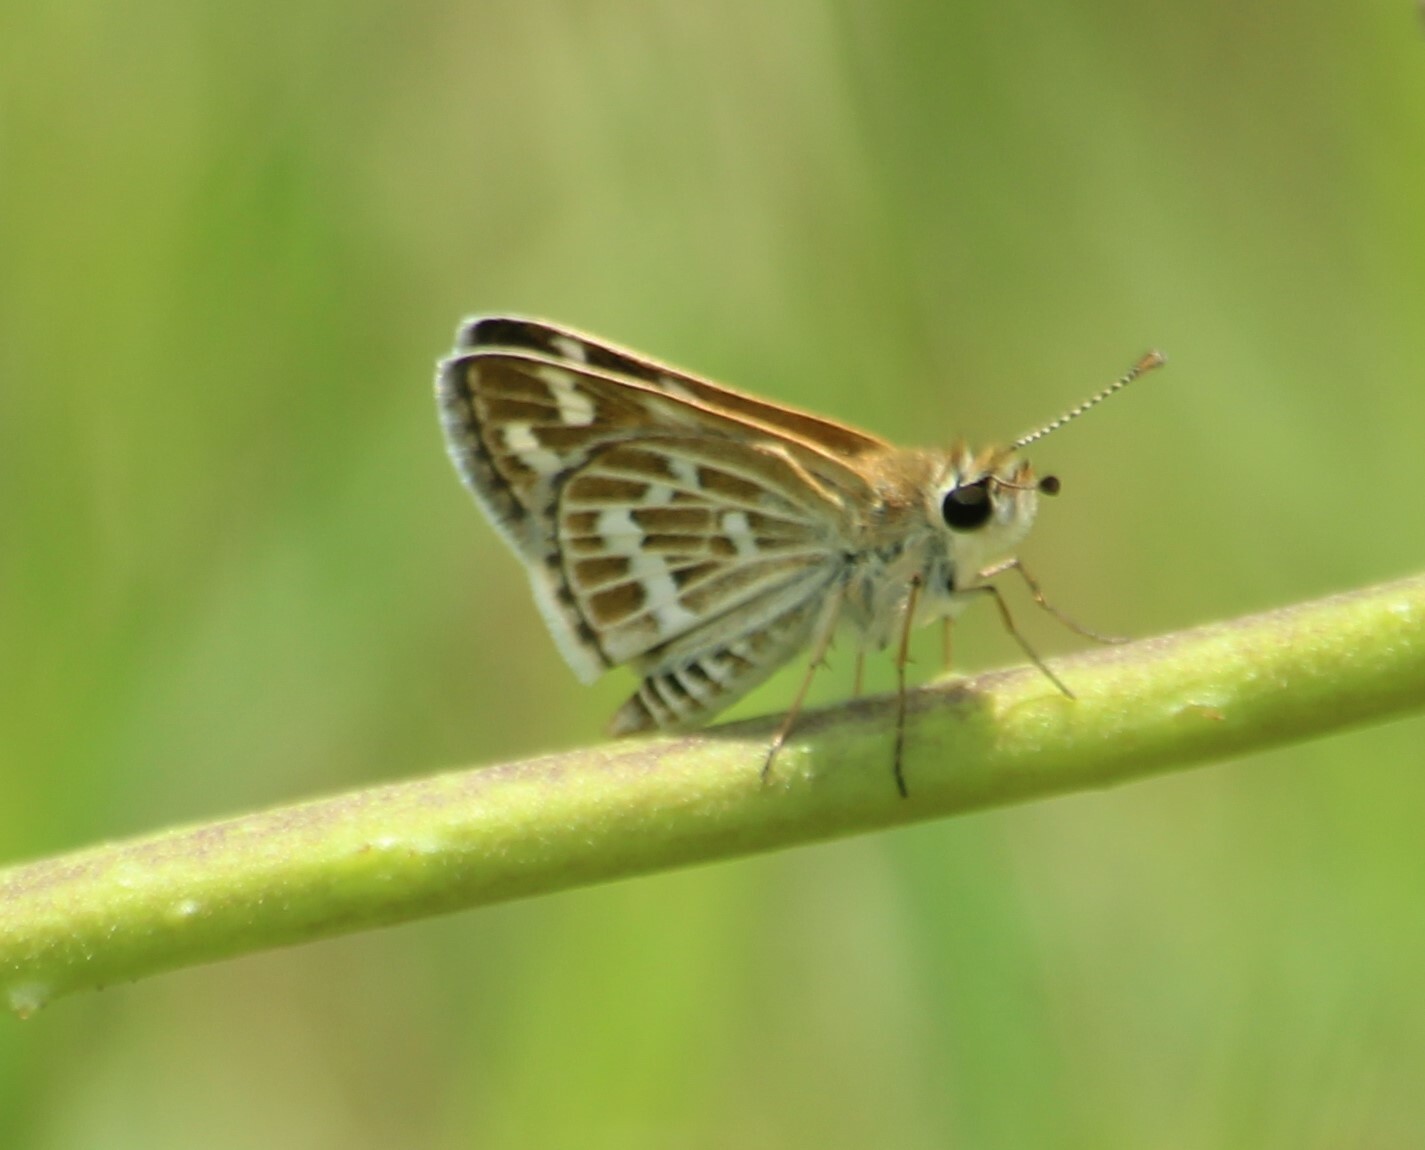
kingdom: Animalia
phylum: Arthropoda
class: Insecta
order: Lepidoptera
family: Hesperiidae
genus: Taractrocera
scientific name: Taractrocera maevius
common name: Common grass-dart
